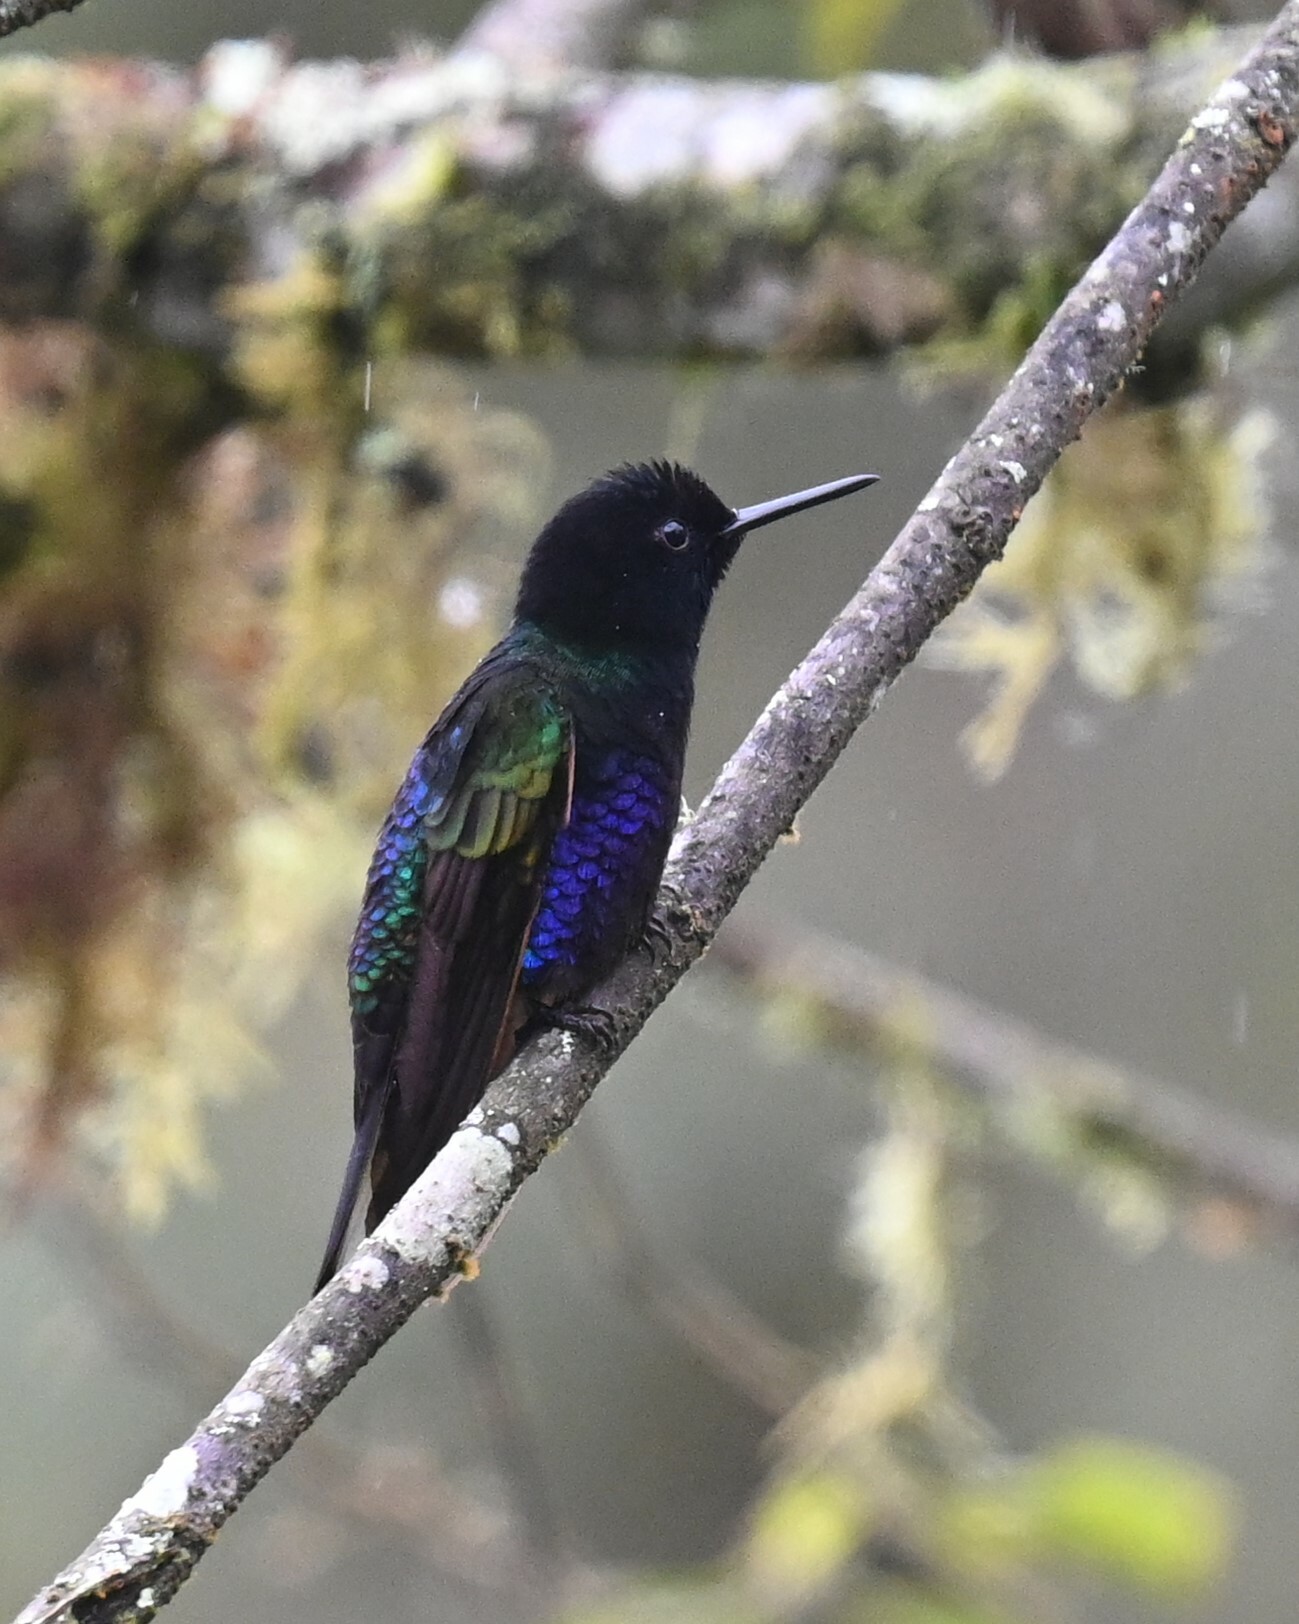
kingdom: Animalia
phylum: Chordata
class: Aves
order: Apodiformes
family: Trochilidae
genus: Boissonneaua
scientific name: Boissonneaua jardini
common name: Velvet-purple coronet
